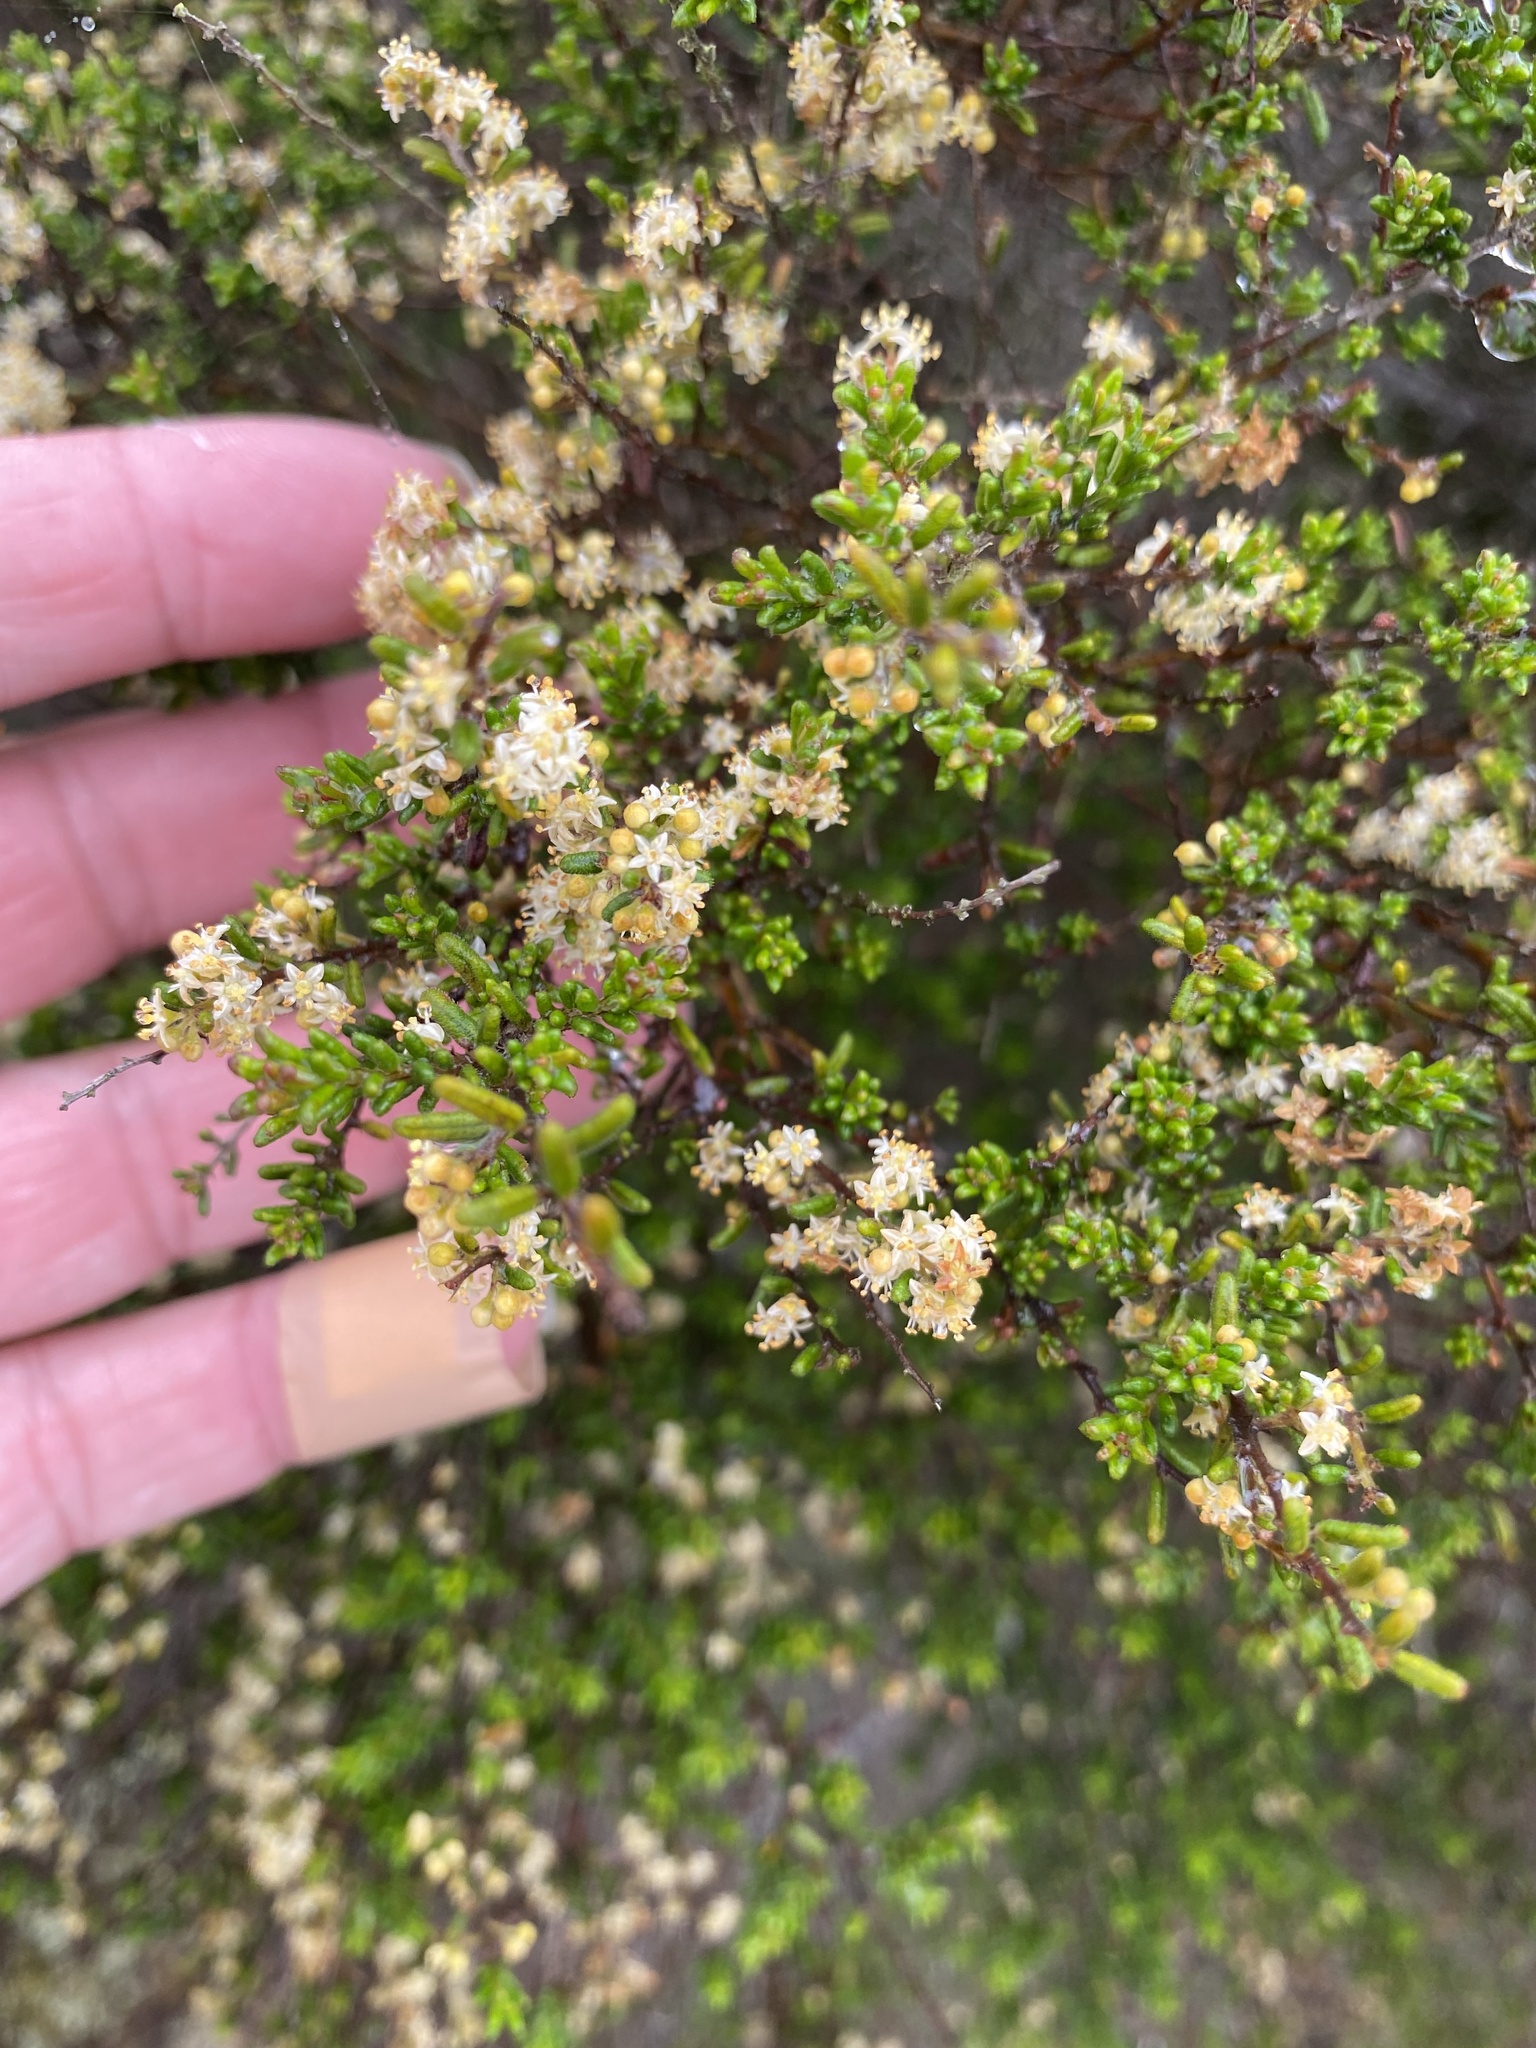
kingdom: Plantae
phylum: Tracheophyta
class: Magnoliopsida
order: Rosales
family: Rhamnaceae
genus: Pomaderris
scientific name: Pomaderris amoena
